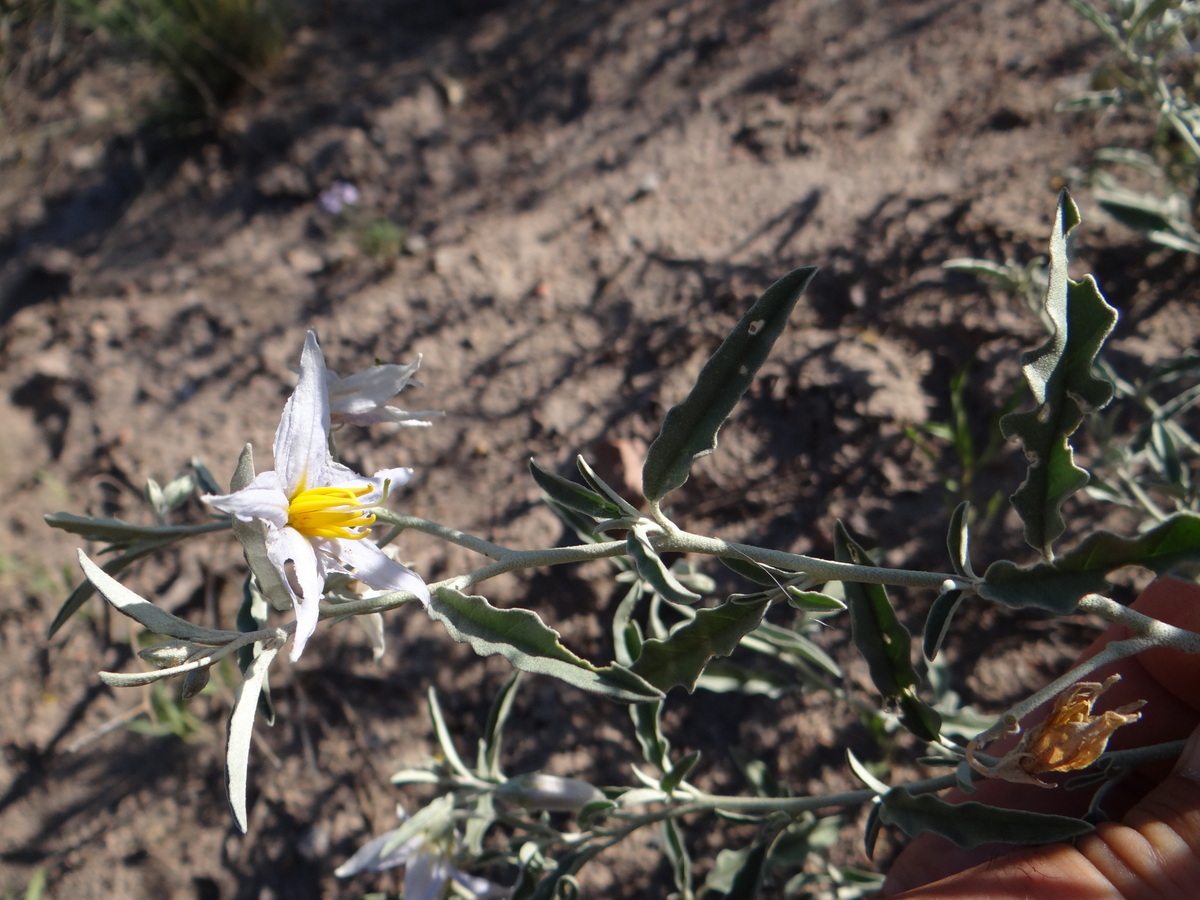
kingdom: Plantae
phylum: Tracheophyta
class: Magnoliopsida
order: Solanales
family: Solanaceae
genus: Solanum
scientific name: Solanum elaeagnifolium
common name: Silverleaf nightshade
